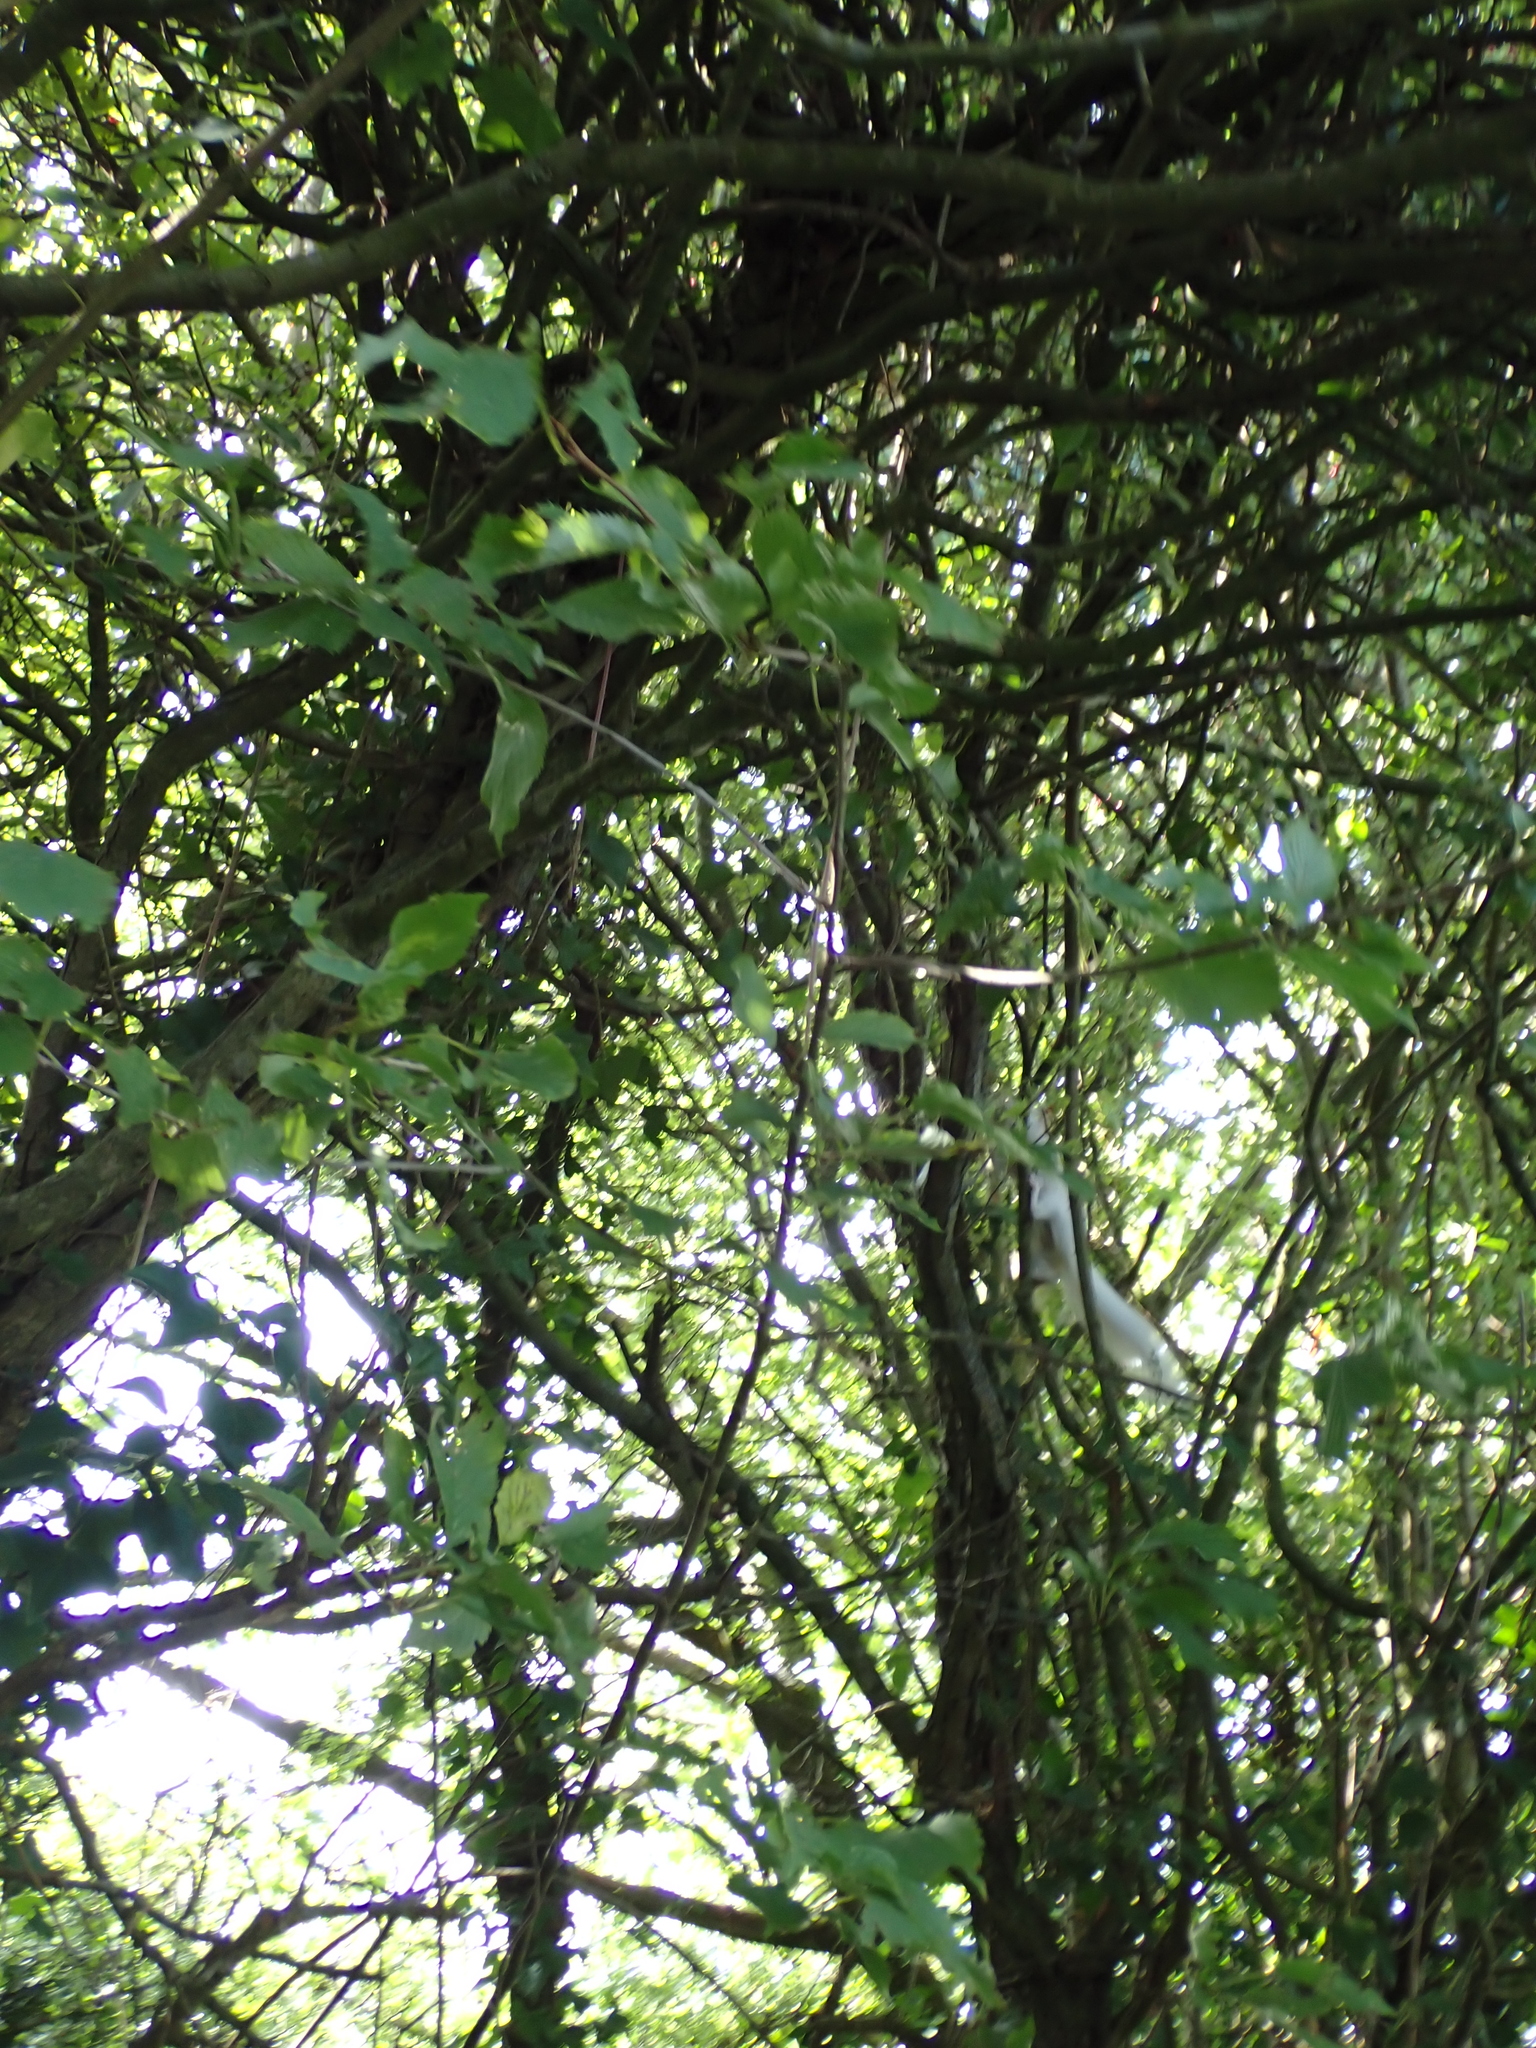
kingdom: Animalia
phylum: Chordata
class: Mammalia
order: Rodentia
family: Sciuridae
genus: Sciurus
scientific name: Sciurus carolinensis
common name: Eastern gray squirrel
